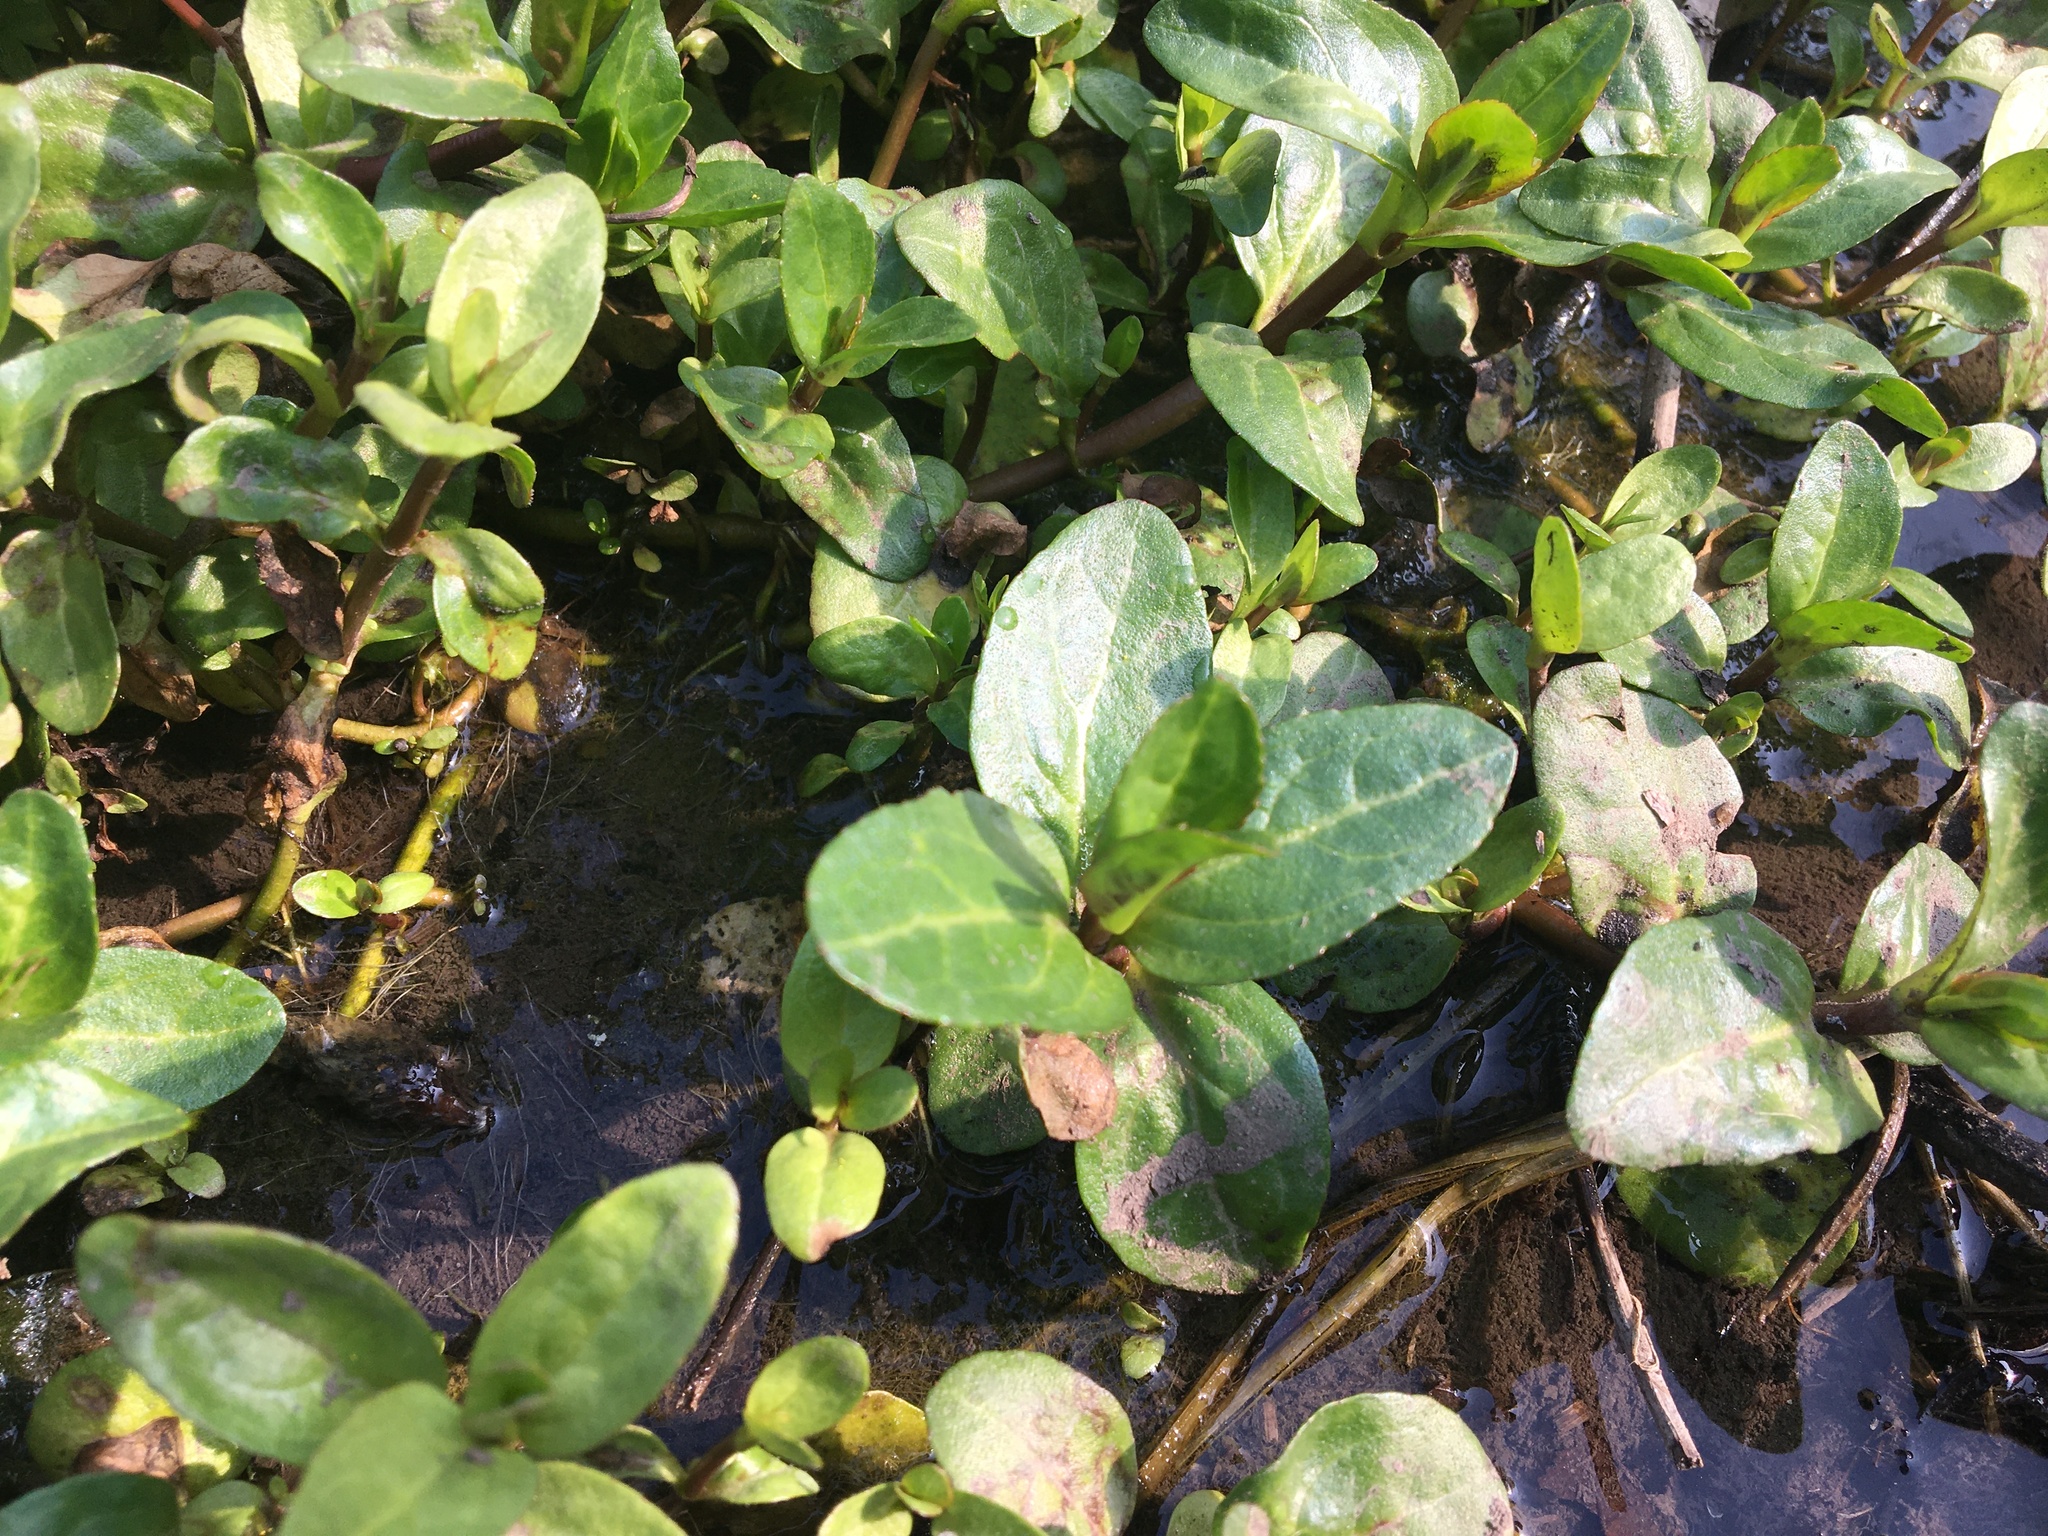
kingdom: Plantae
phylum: Tracheophyta
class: Magnoliopsida
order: Lamiales
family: Plantaginaceae
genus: Veronica
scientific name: Veronica beccabunga
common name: Brooklime
